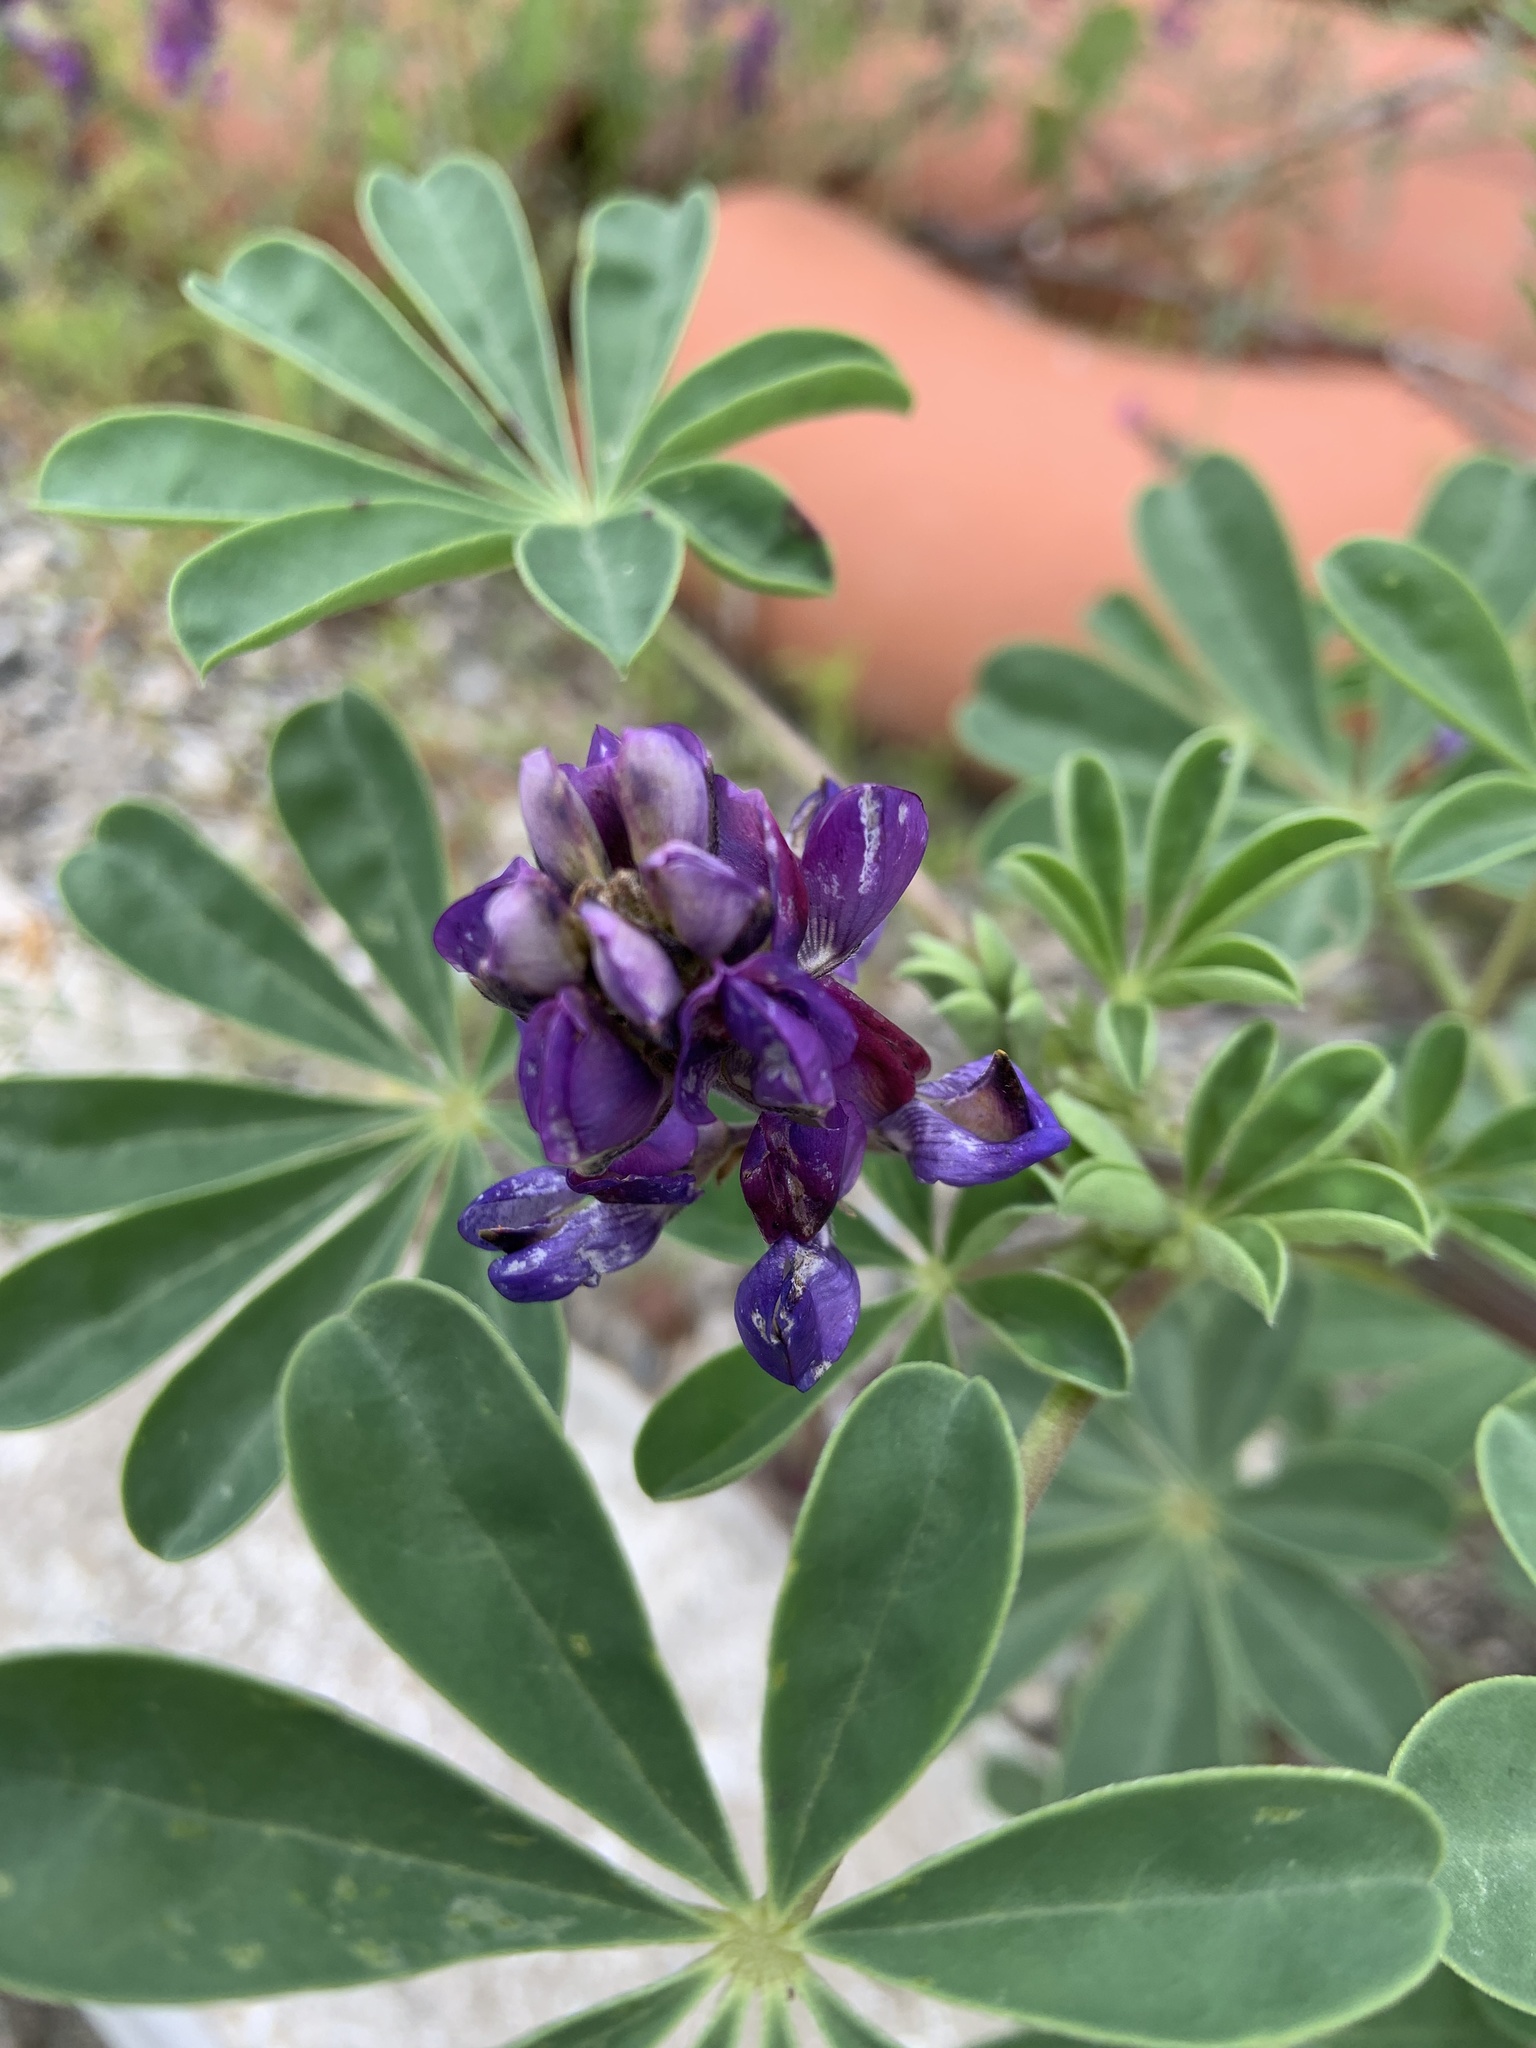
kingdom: Plantae
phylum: Tracheophyta
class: Magnoliopsida
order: Fabales
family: Fabaceae
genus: Lupinus
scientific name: Lupinus succulentus
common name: Arroyo lupine
